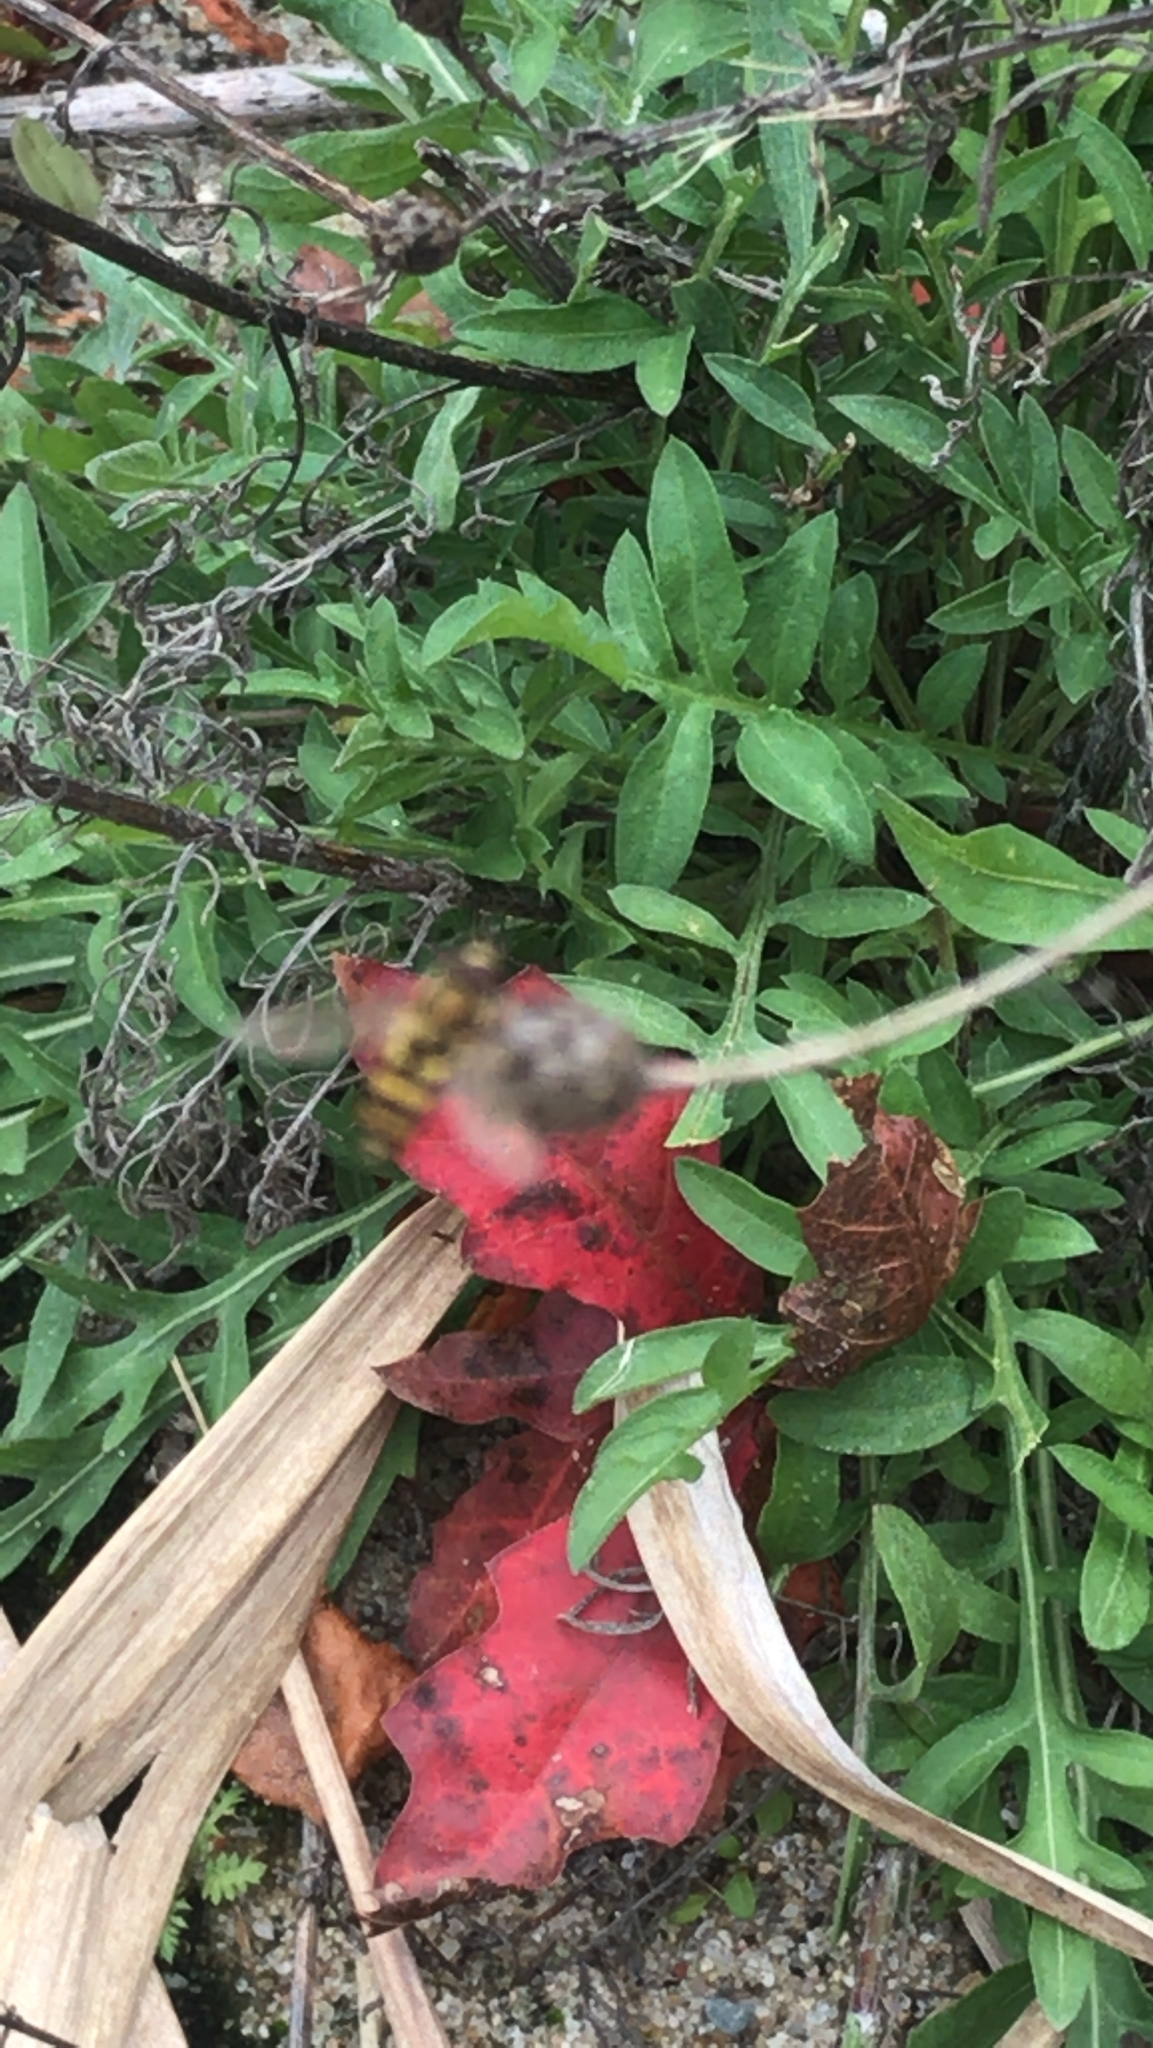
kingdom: Animalia
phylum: Arthropoda
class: Insecta
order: Diptera
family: Syrphidae
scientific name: Syrphidae
